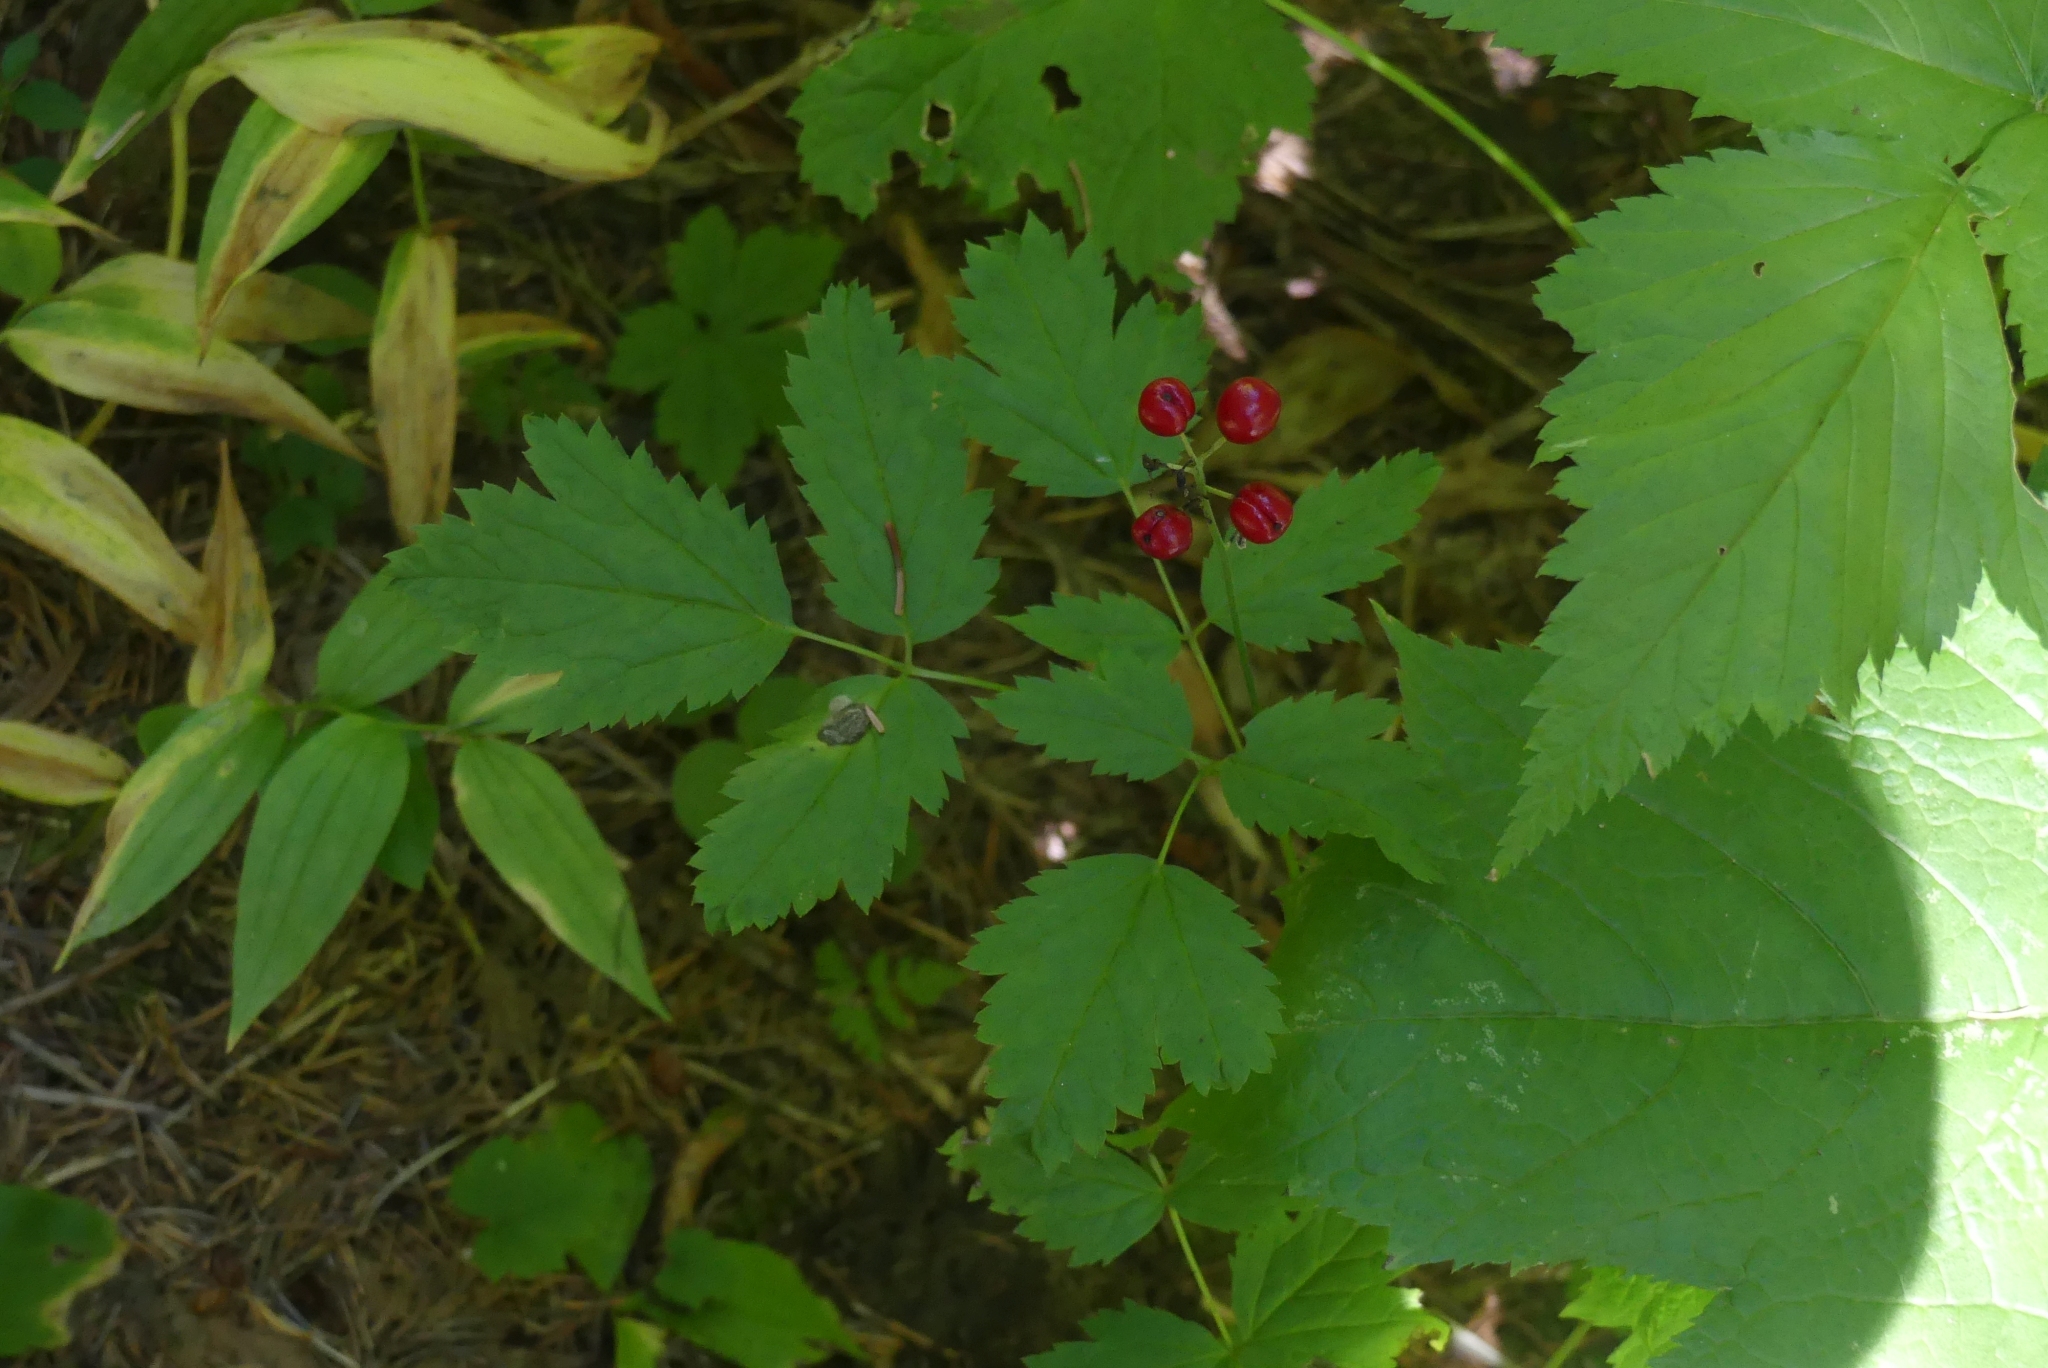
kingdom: Plantae
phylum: Tracheophyta
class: Magnoliopsida
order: Ranunculales
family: Ranunculaceae
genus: Actaea
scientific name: Actaea rubra
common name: Red baneberry
